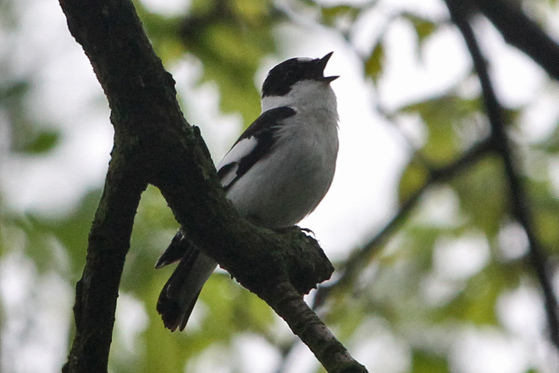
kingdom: Animalia
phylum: Chordata
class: Aves
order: Passeriformes
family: Muscicapidae
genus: Ficedula
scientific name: Ficedula albicollis
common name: Collared flycatcher
